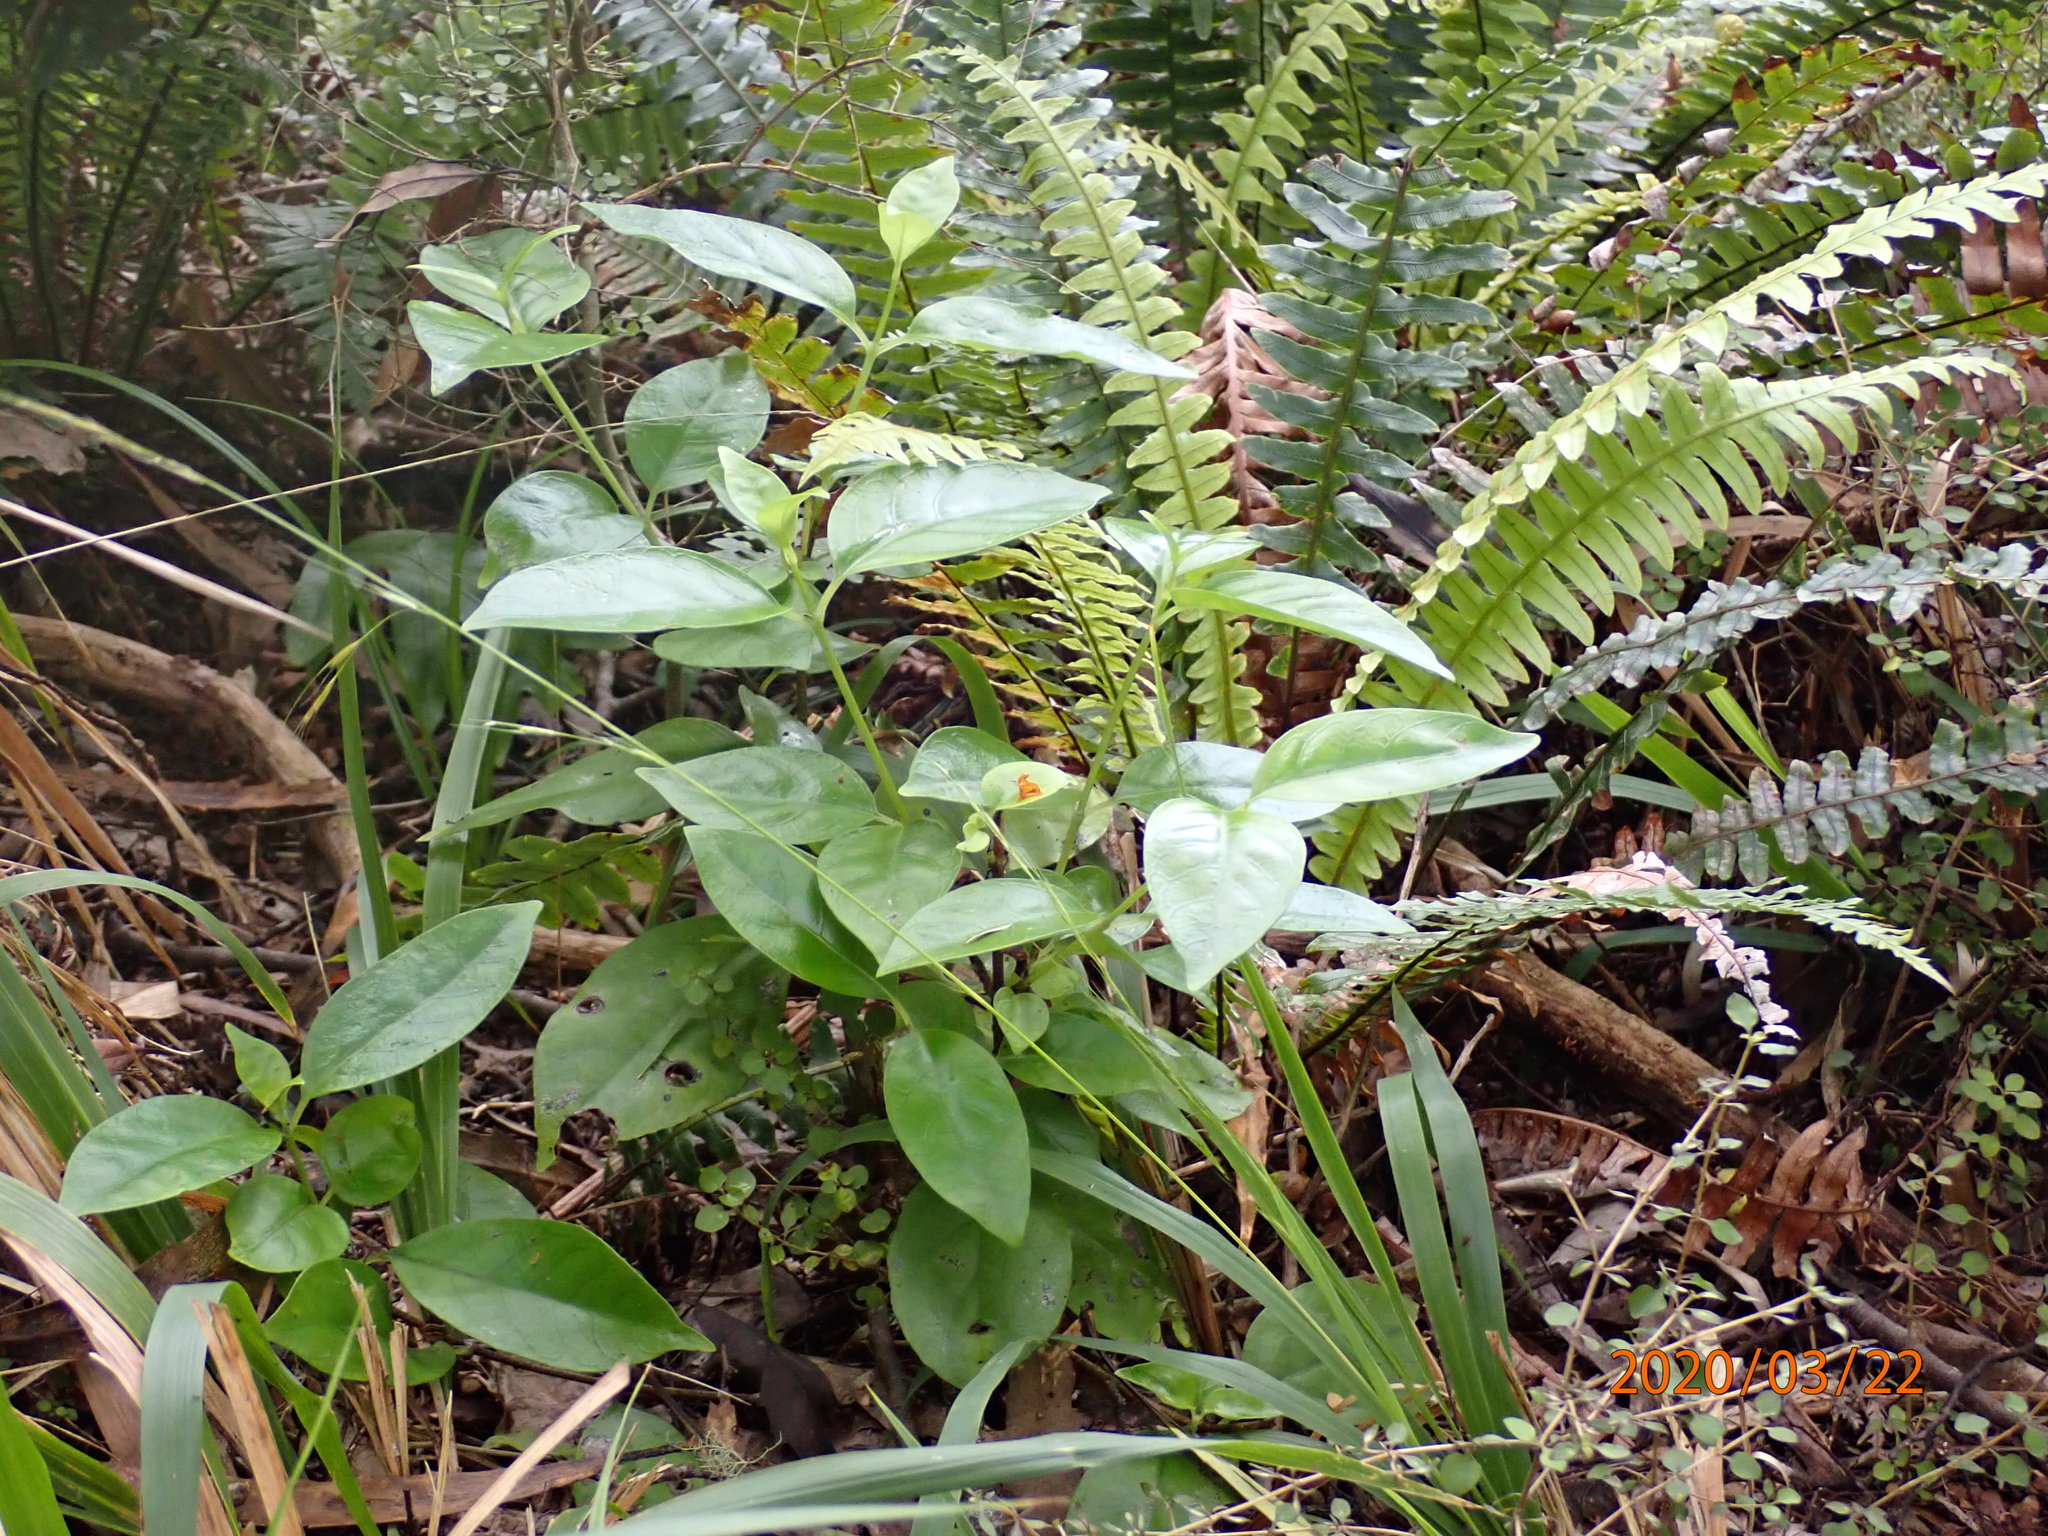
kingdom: Plantae
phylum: Tracheophyta
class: Magnoliopsida
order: Gentianales
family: Loganiaceae
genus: Geniostoma
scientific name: Geniostoma ligustrifolium
